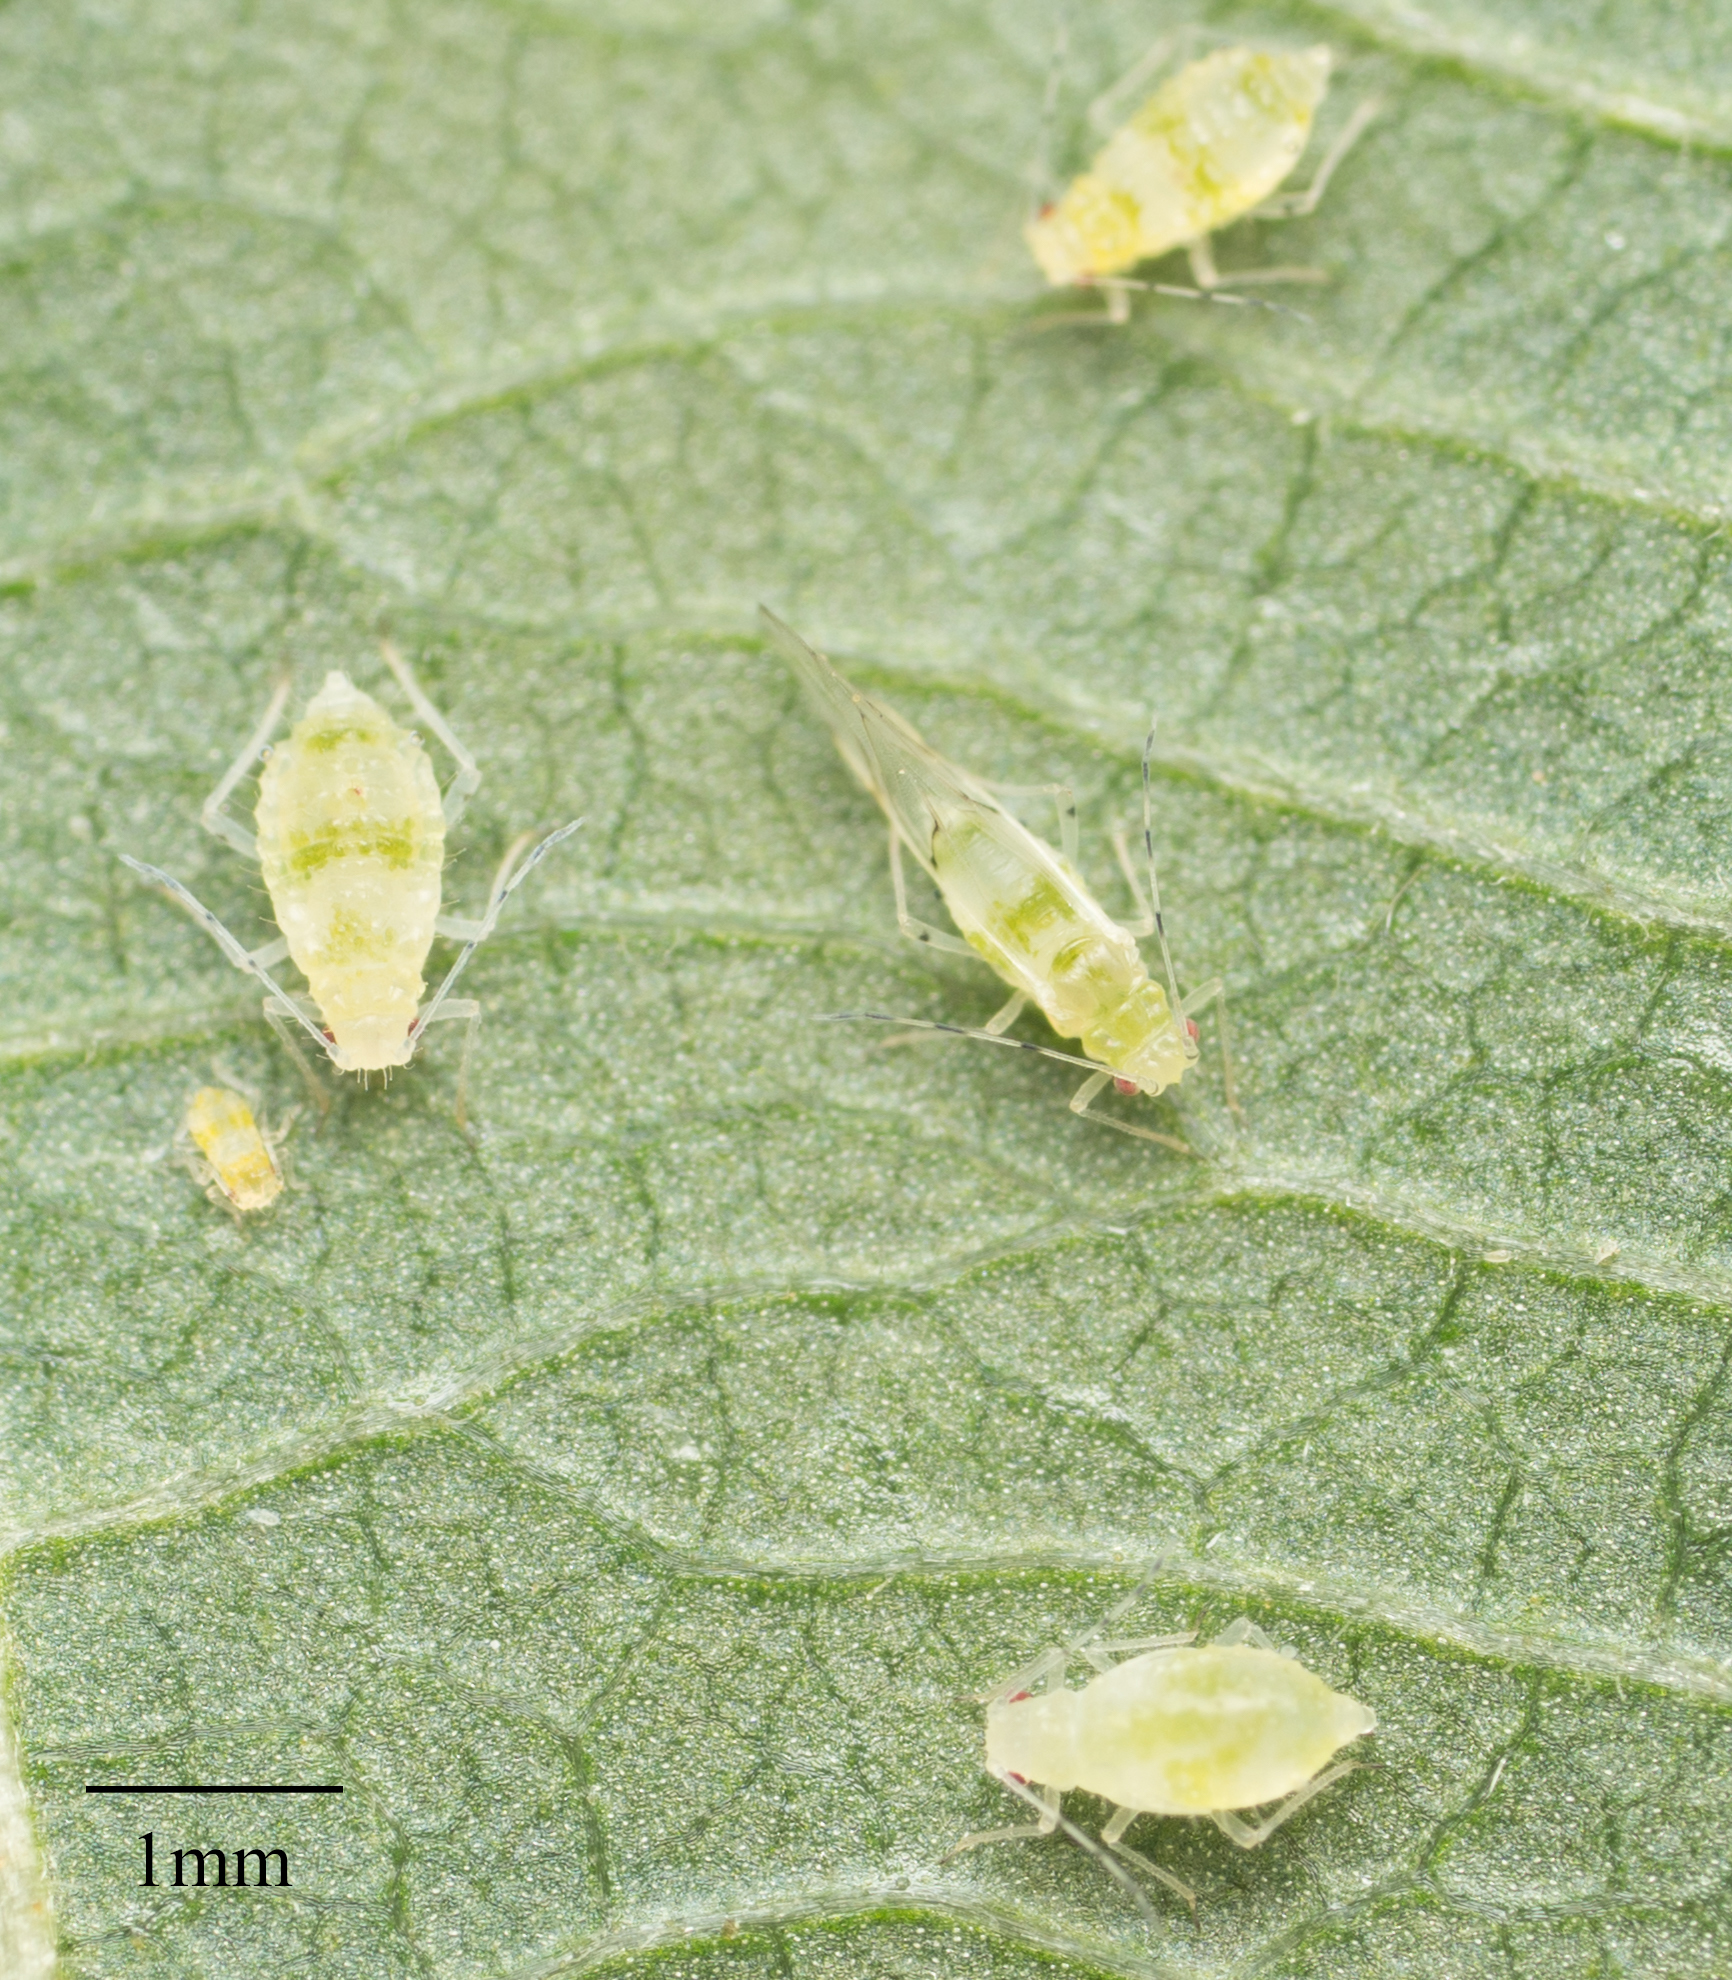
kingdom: Animalia
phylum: Arthropoda
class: Insecta
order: Hemiptera
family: Aphididae
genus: Pterocallis
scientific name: Pterocallis alni
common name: Aphid
